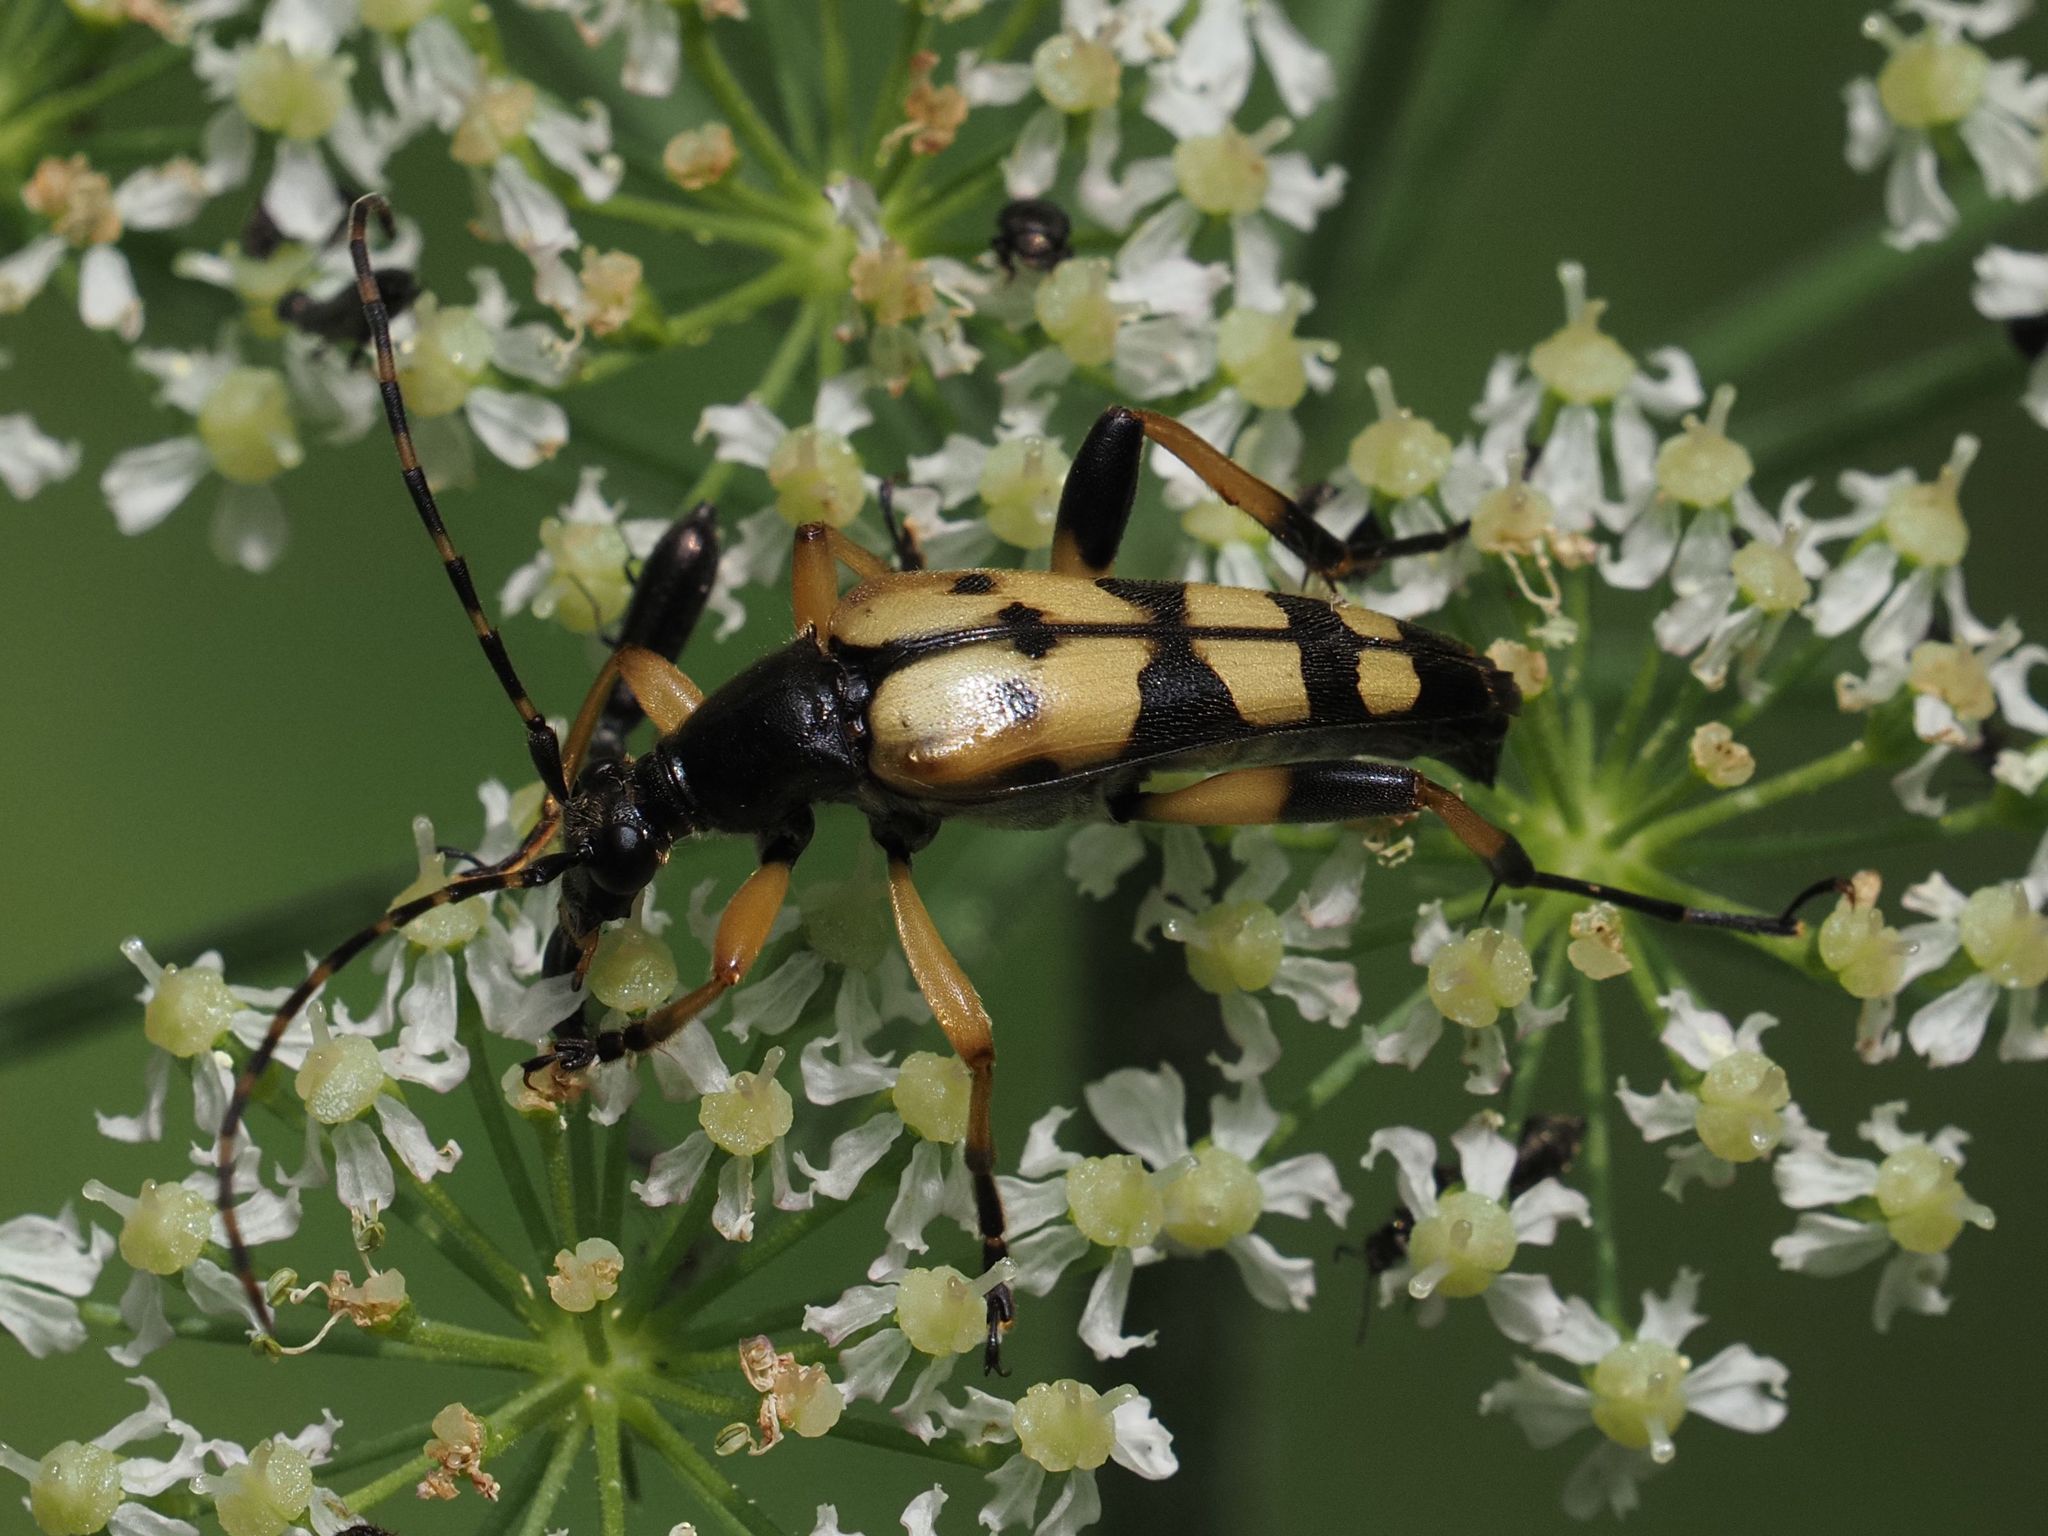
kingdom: Animalia
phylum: Arthropoda
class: Insecta
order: Coleoptera
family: Cerambycidae
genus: Rutpela
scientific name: Rutpela maculata
